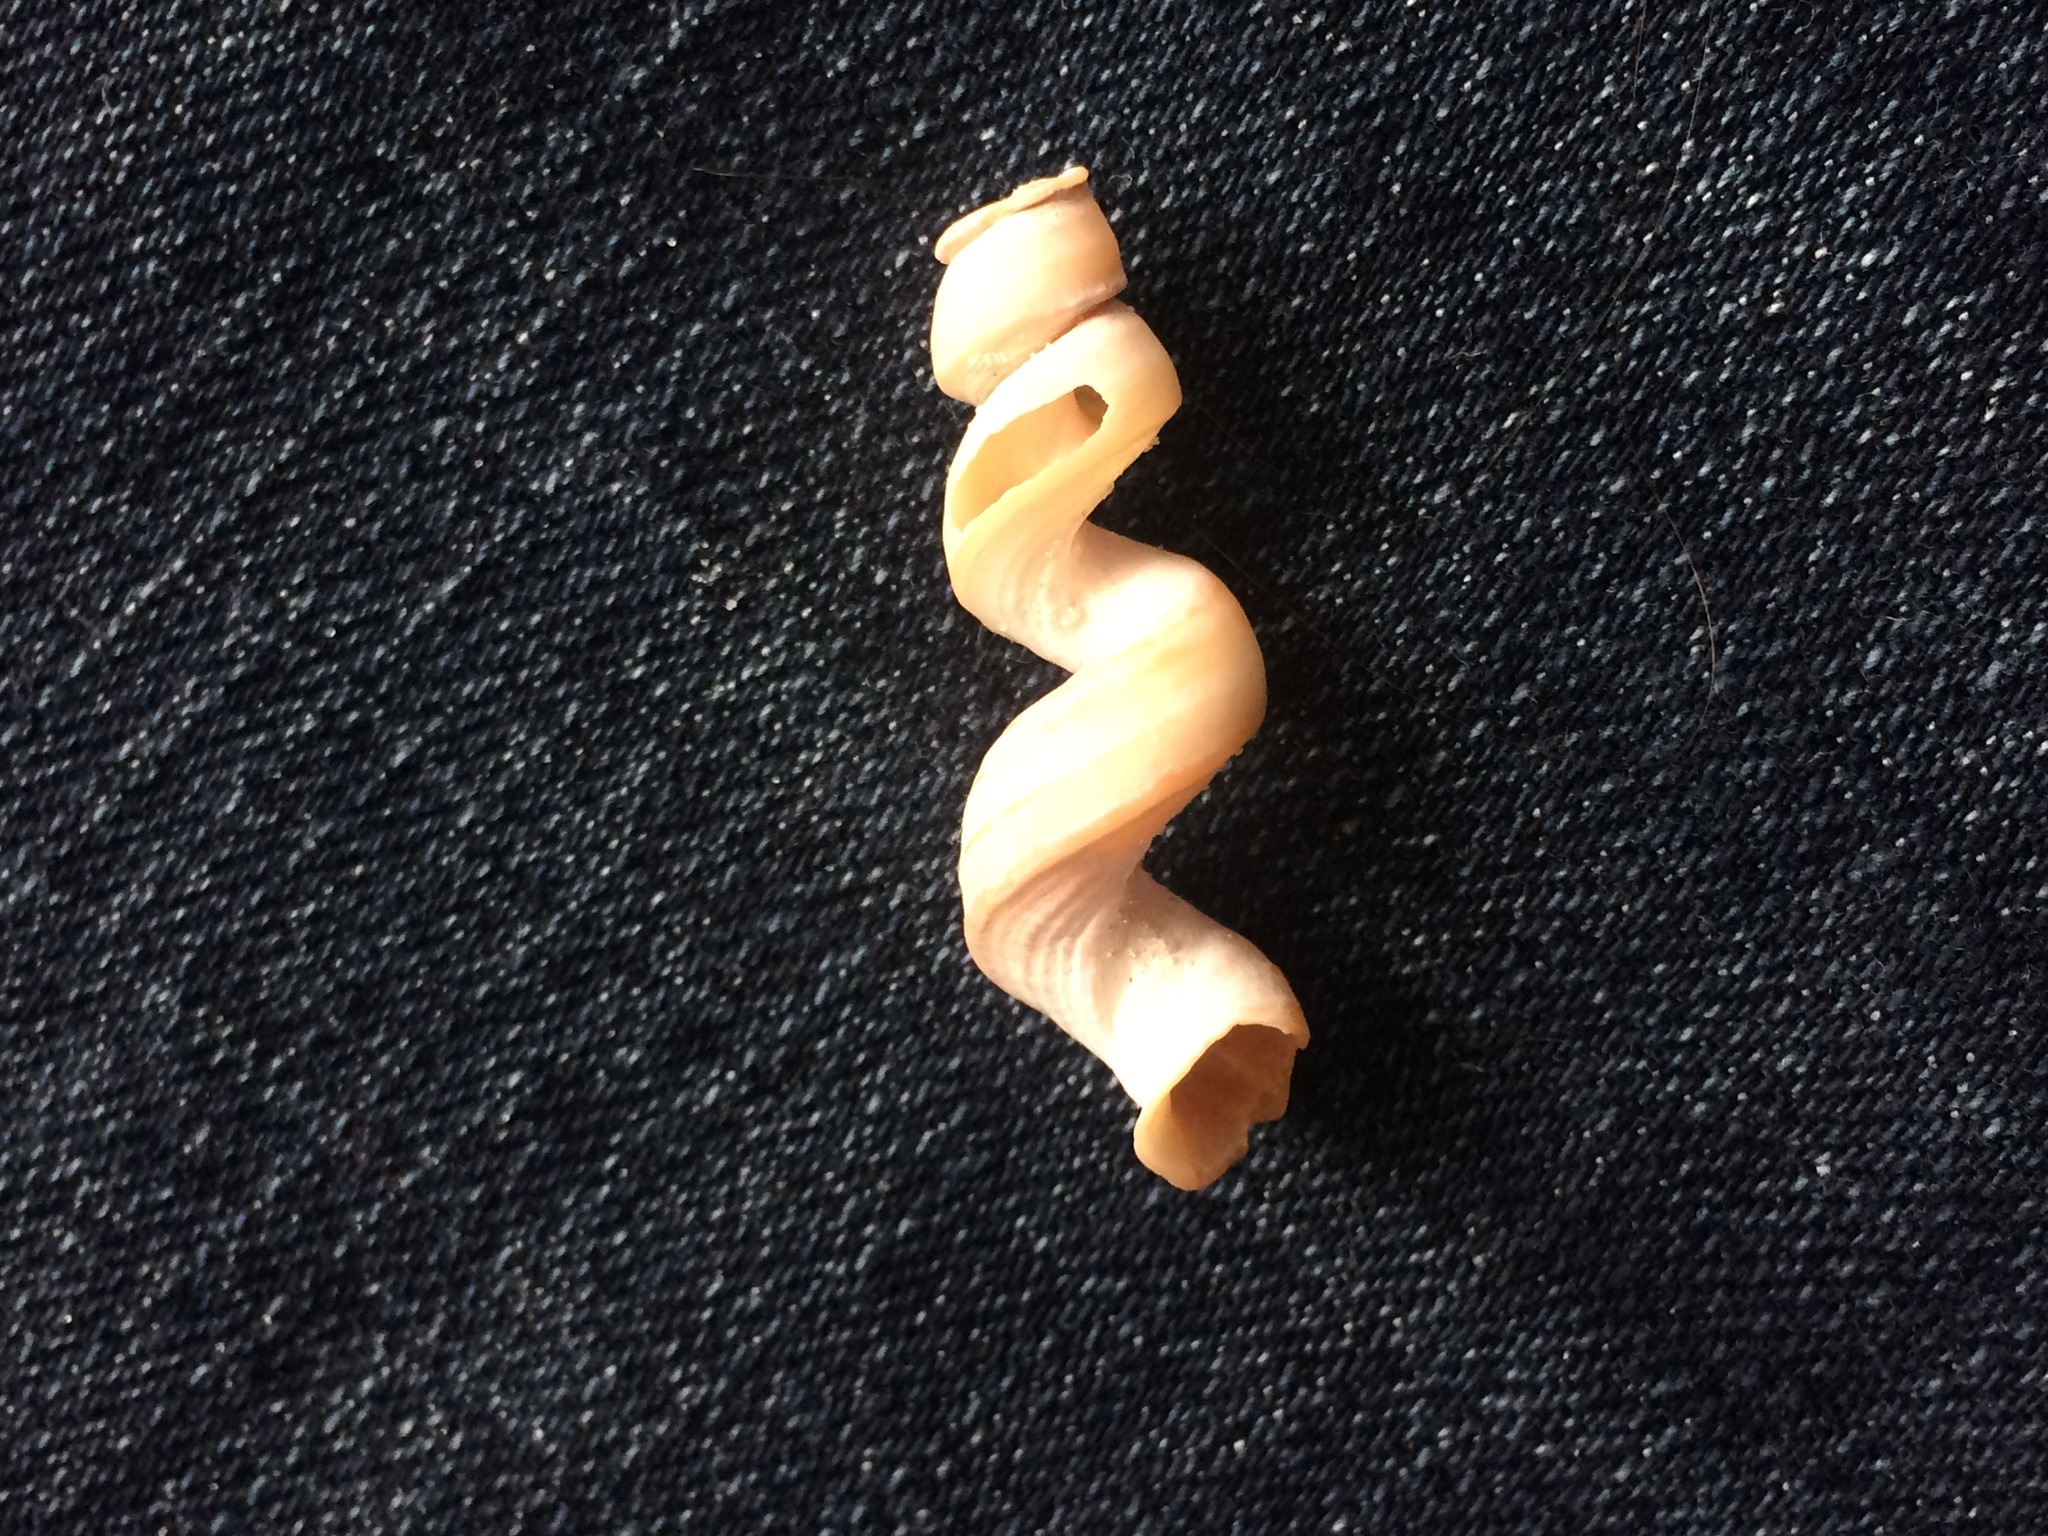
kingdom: Animalia
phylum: Mollusca
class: Gastropoda
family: Turritellidae
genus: Vermicularia
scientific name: Vermicularia fargoi
